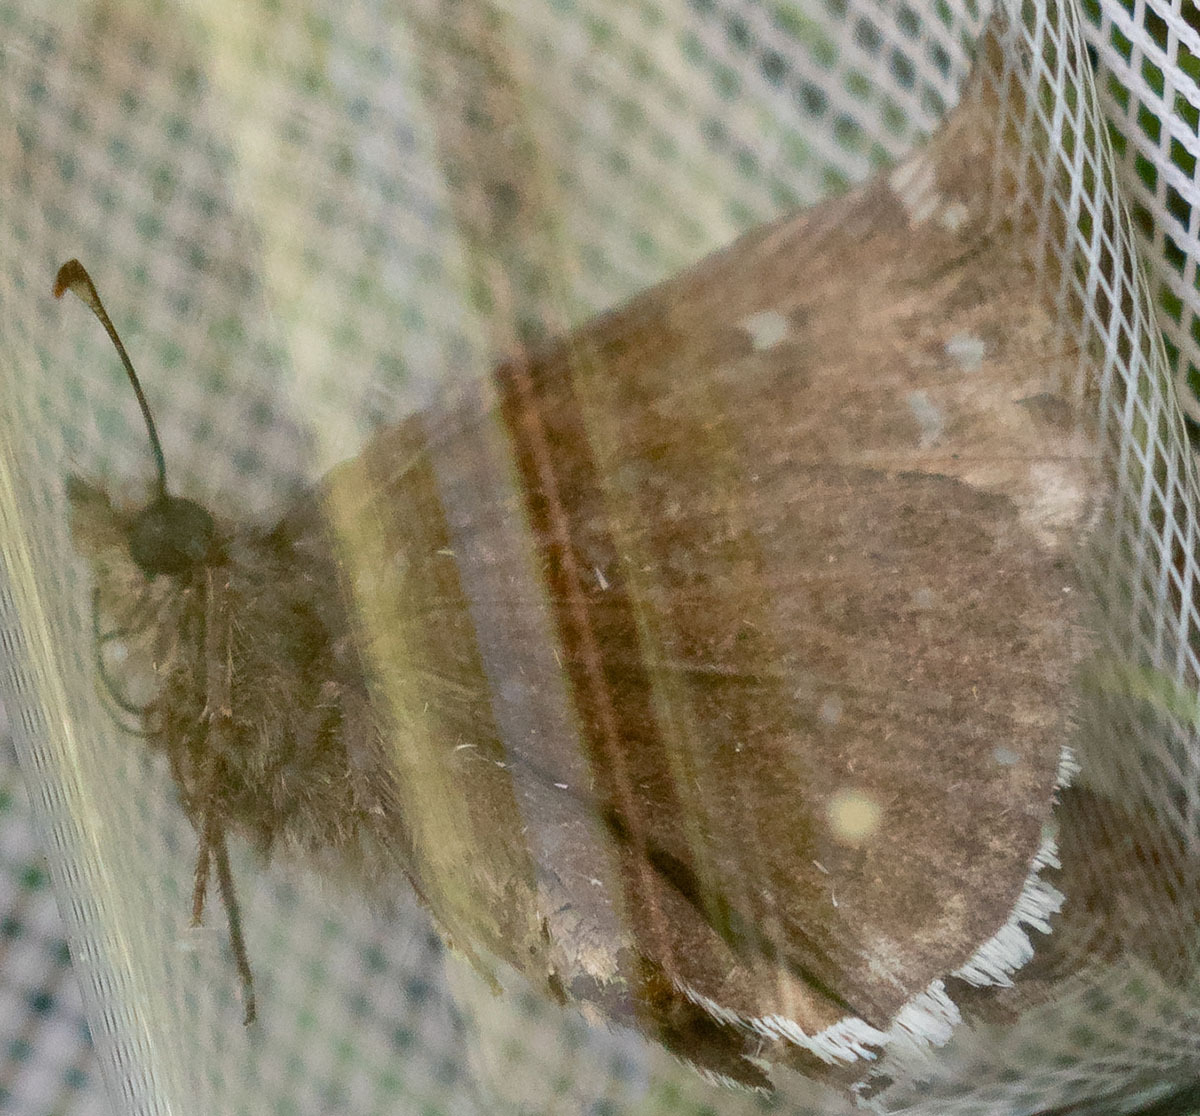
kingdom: Animalia
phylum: Arthropoda
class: Insecta
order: Lepidoptera
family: Hesperiidae
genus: Erynnis
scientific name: Erynnis tristis
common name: Mournful duskywing
